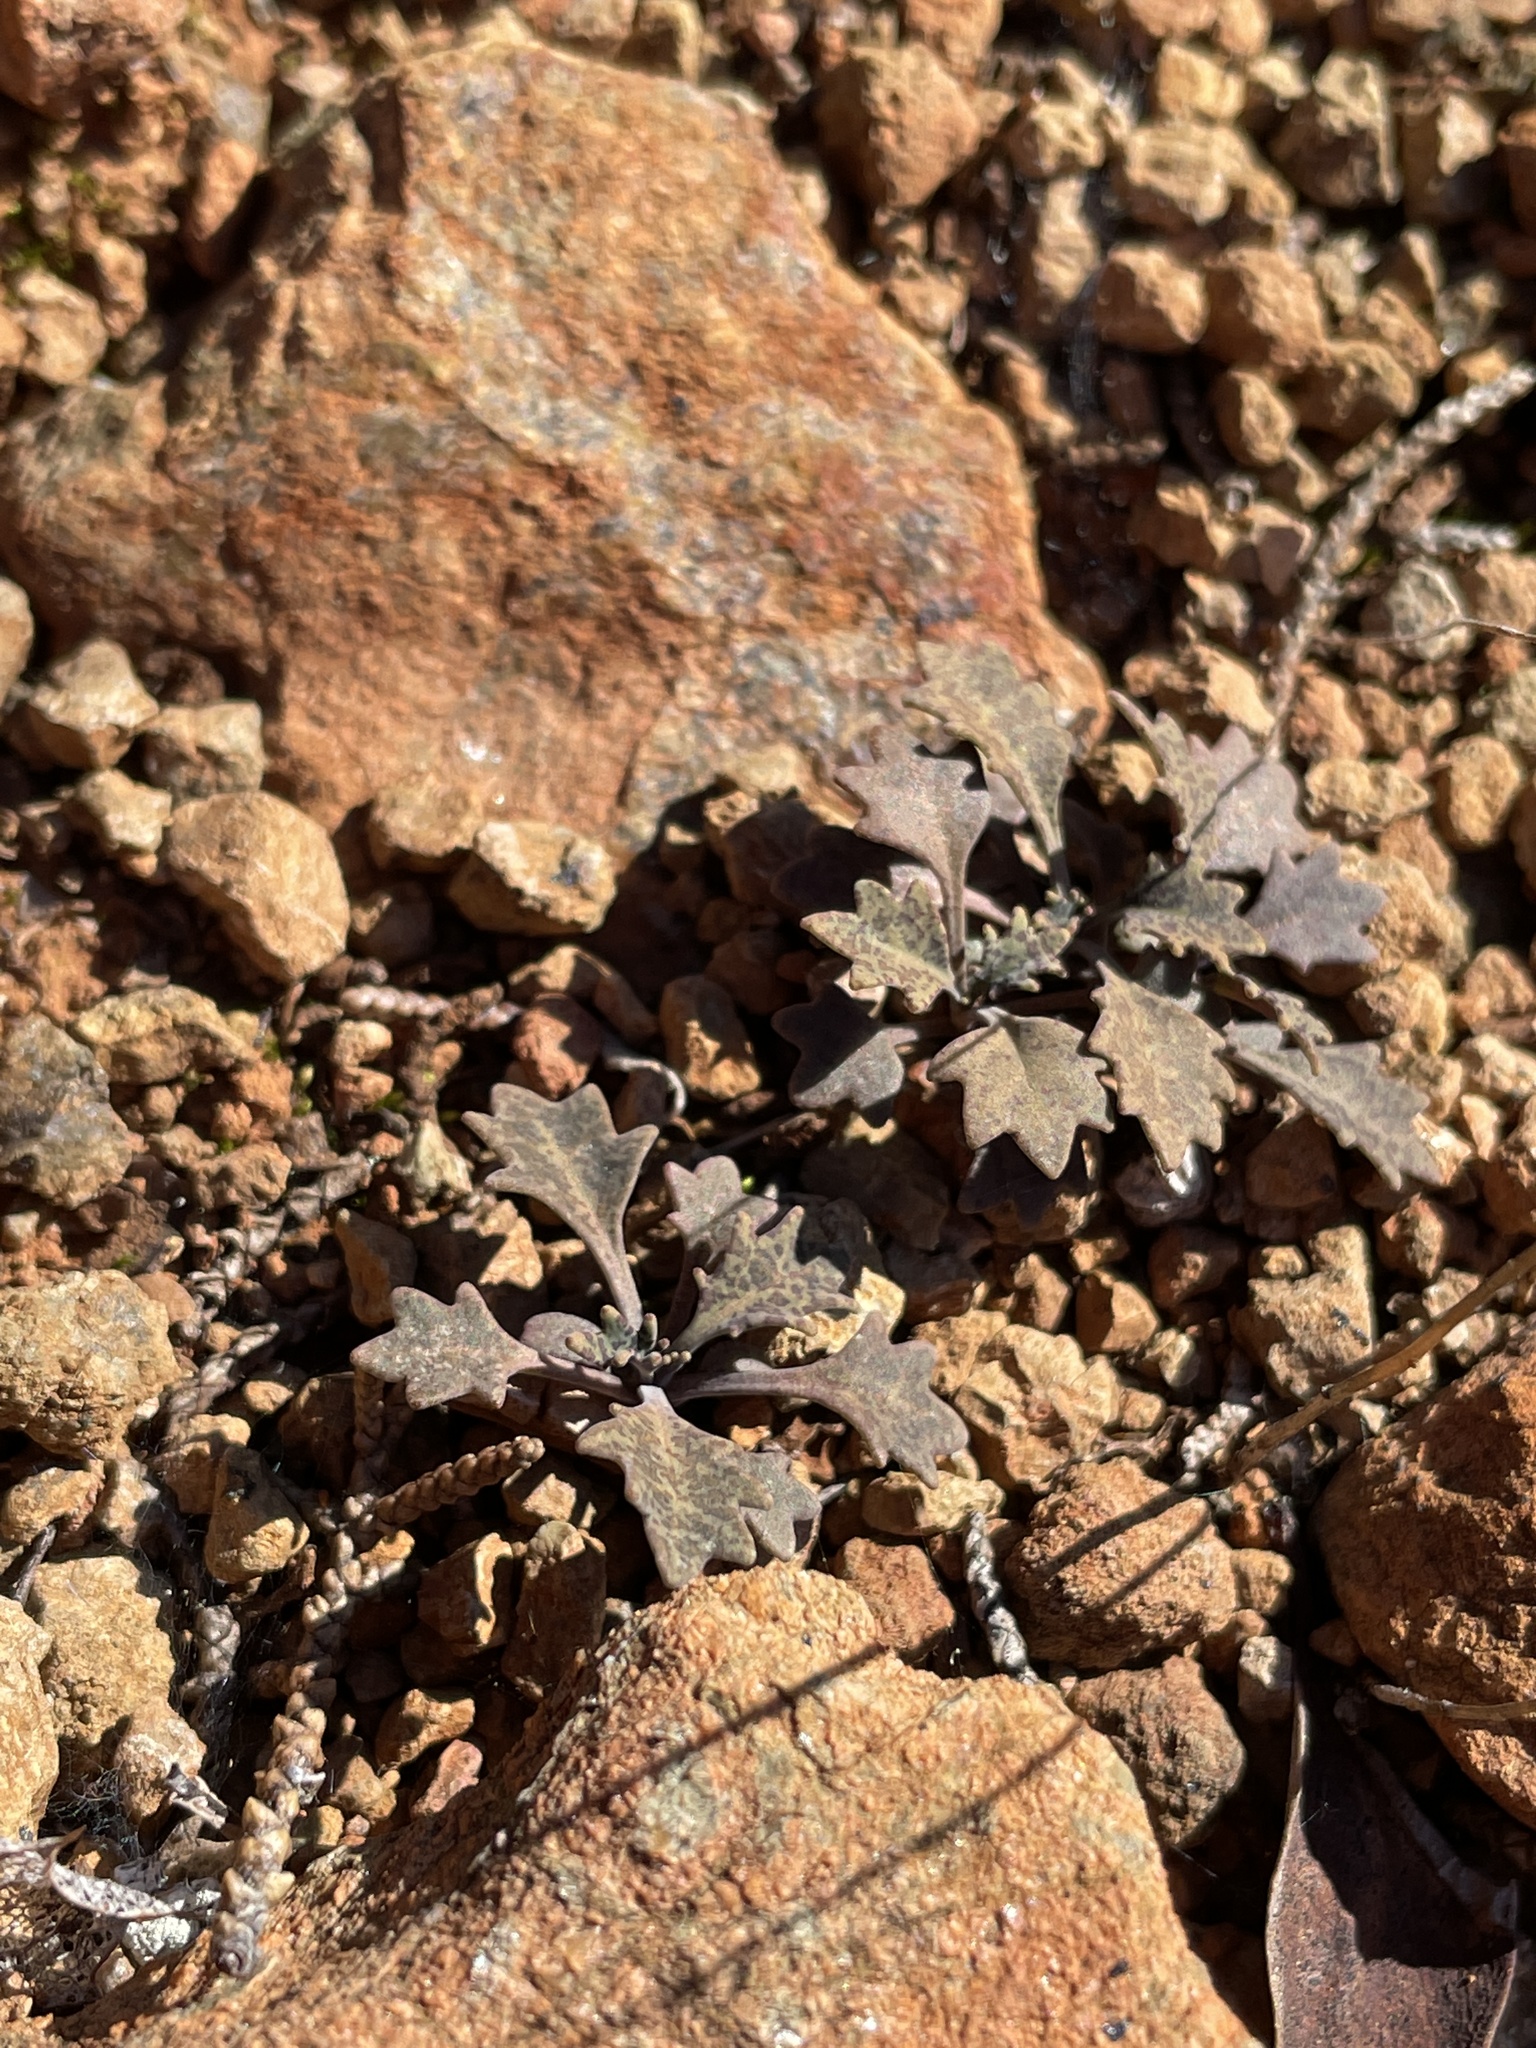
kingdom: Plantae
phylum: Tracheophyta
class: Magnoliopsida
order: Brassicales
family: Brassicaceae
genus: Streptanthus
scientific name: Streptanthus barbiger
